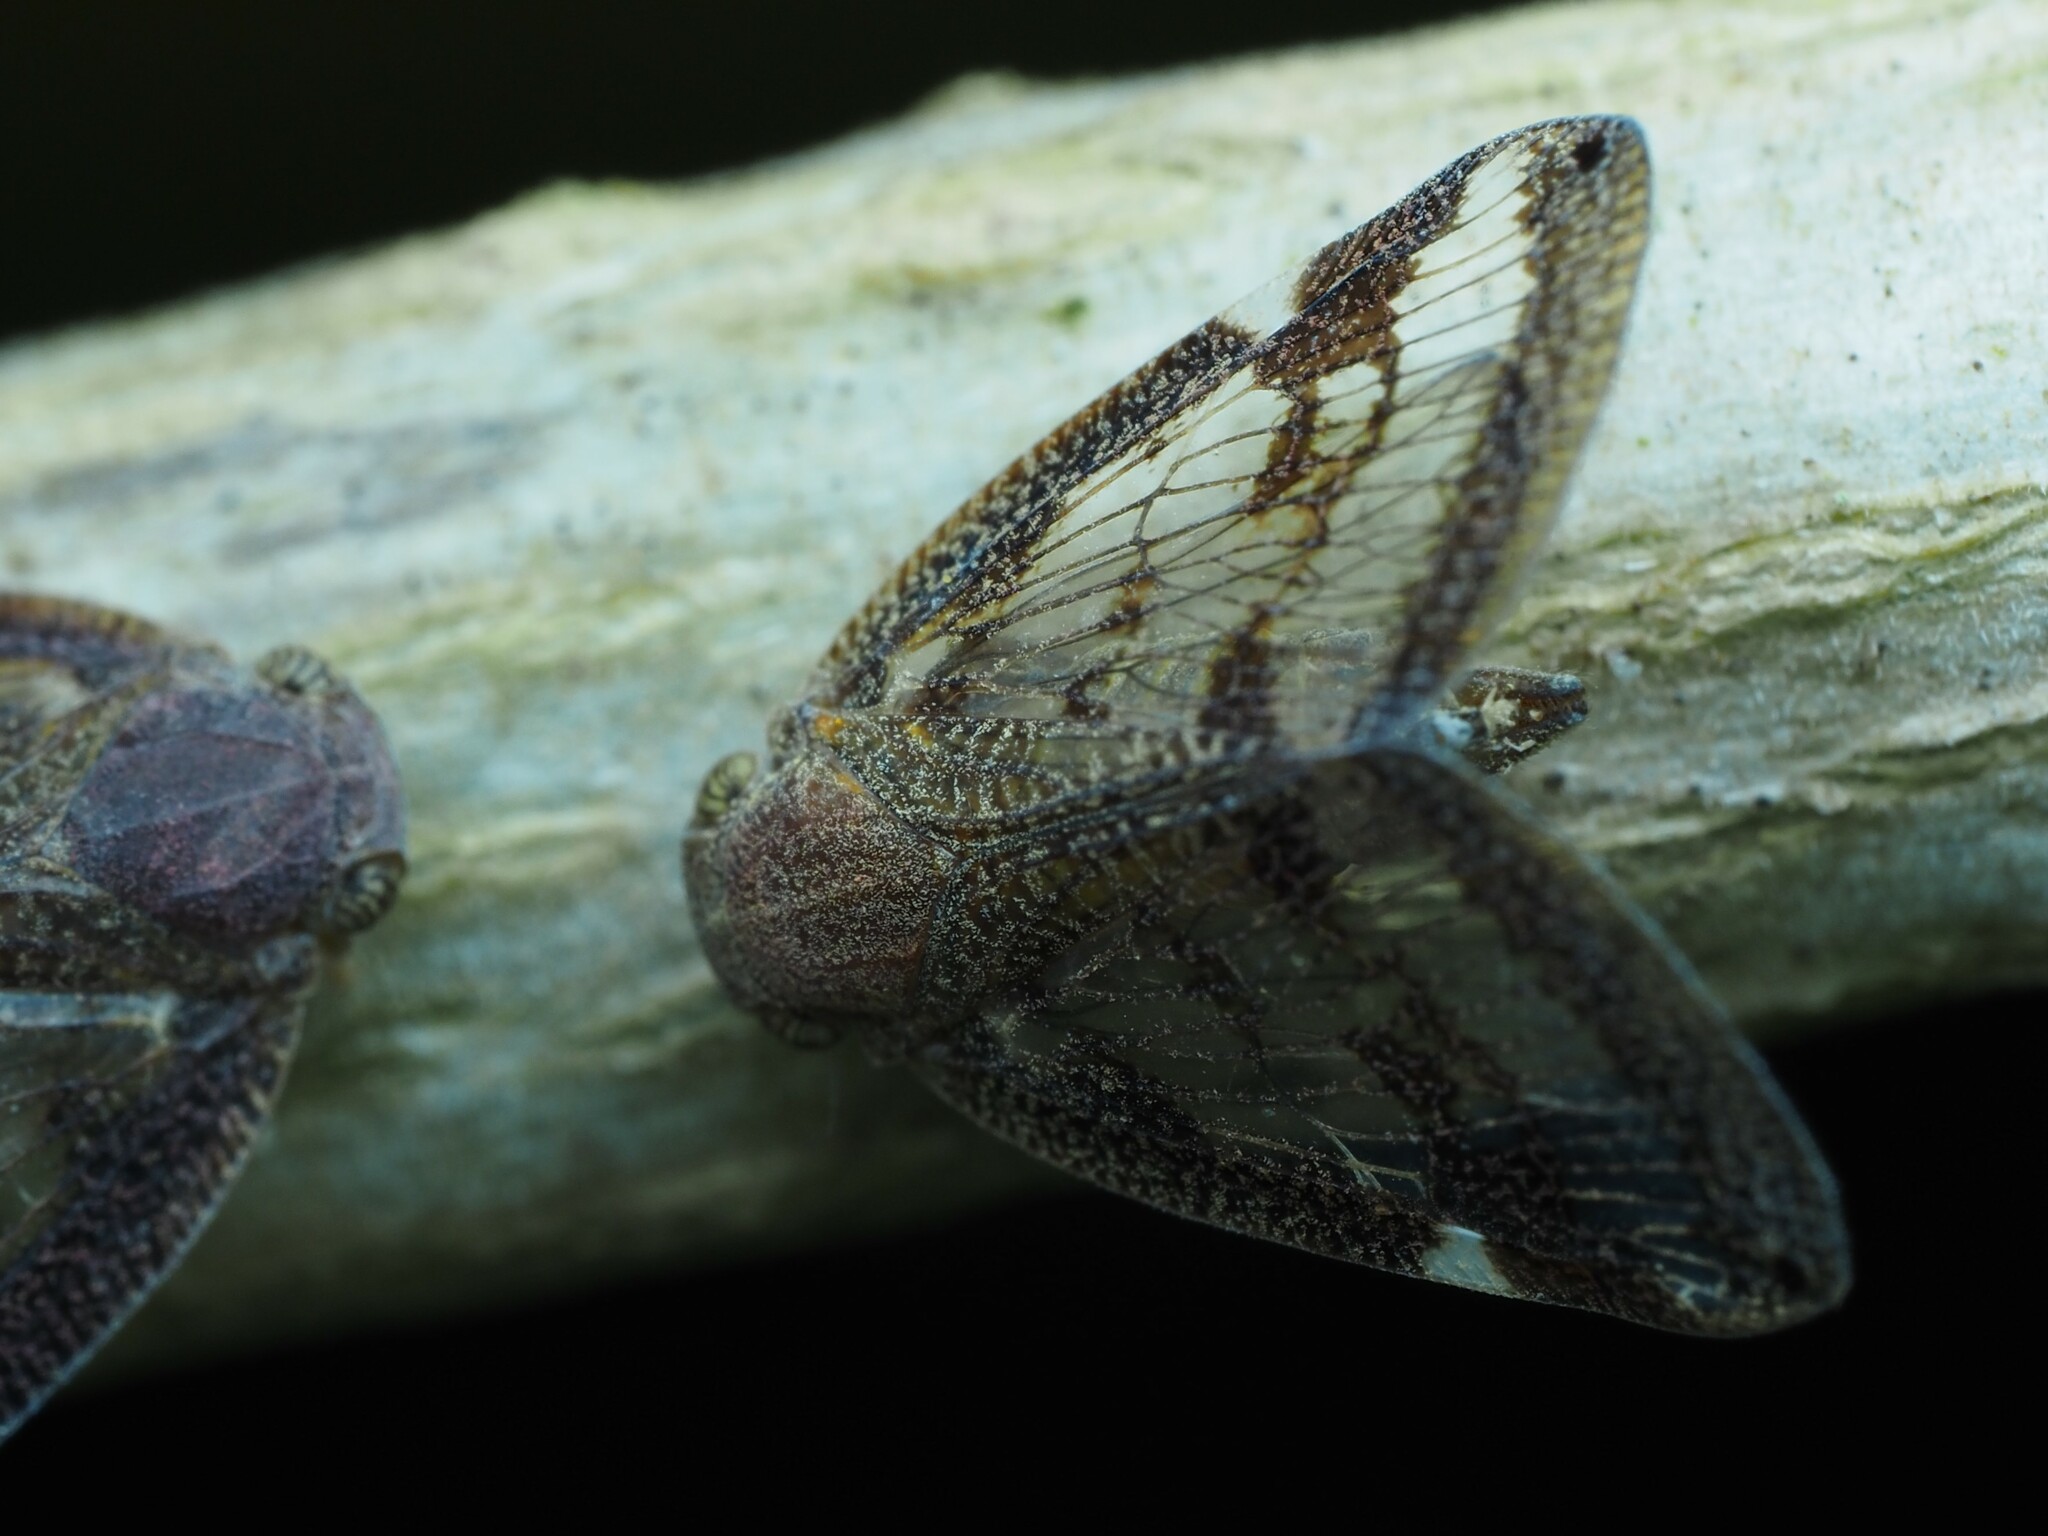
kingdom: Animalia
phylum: Arthropoda
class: Insecta
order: Hemiptera
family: Ricaniidae
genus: Scolypopa
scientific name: Scolypopa australis
